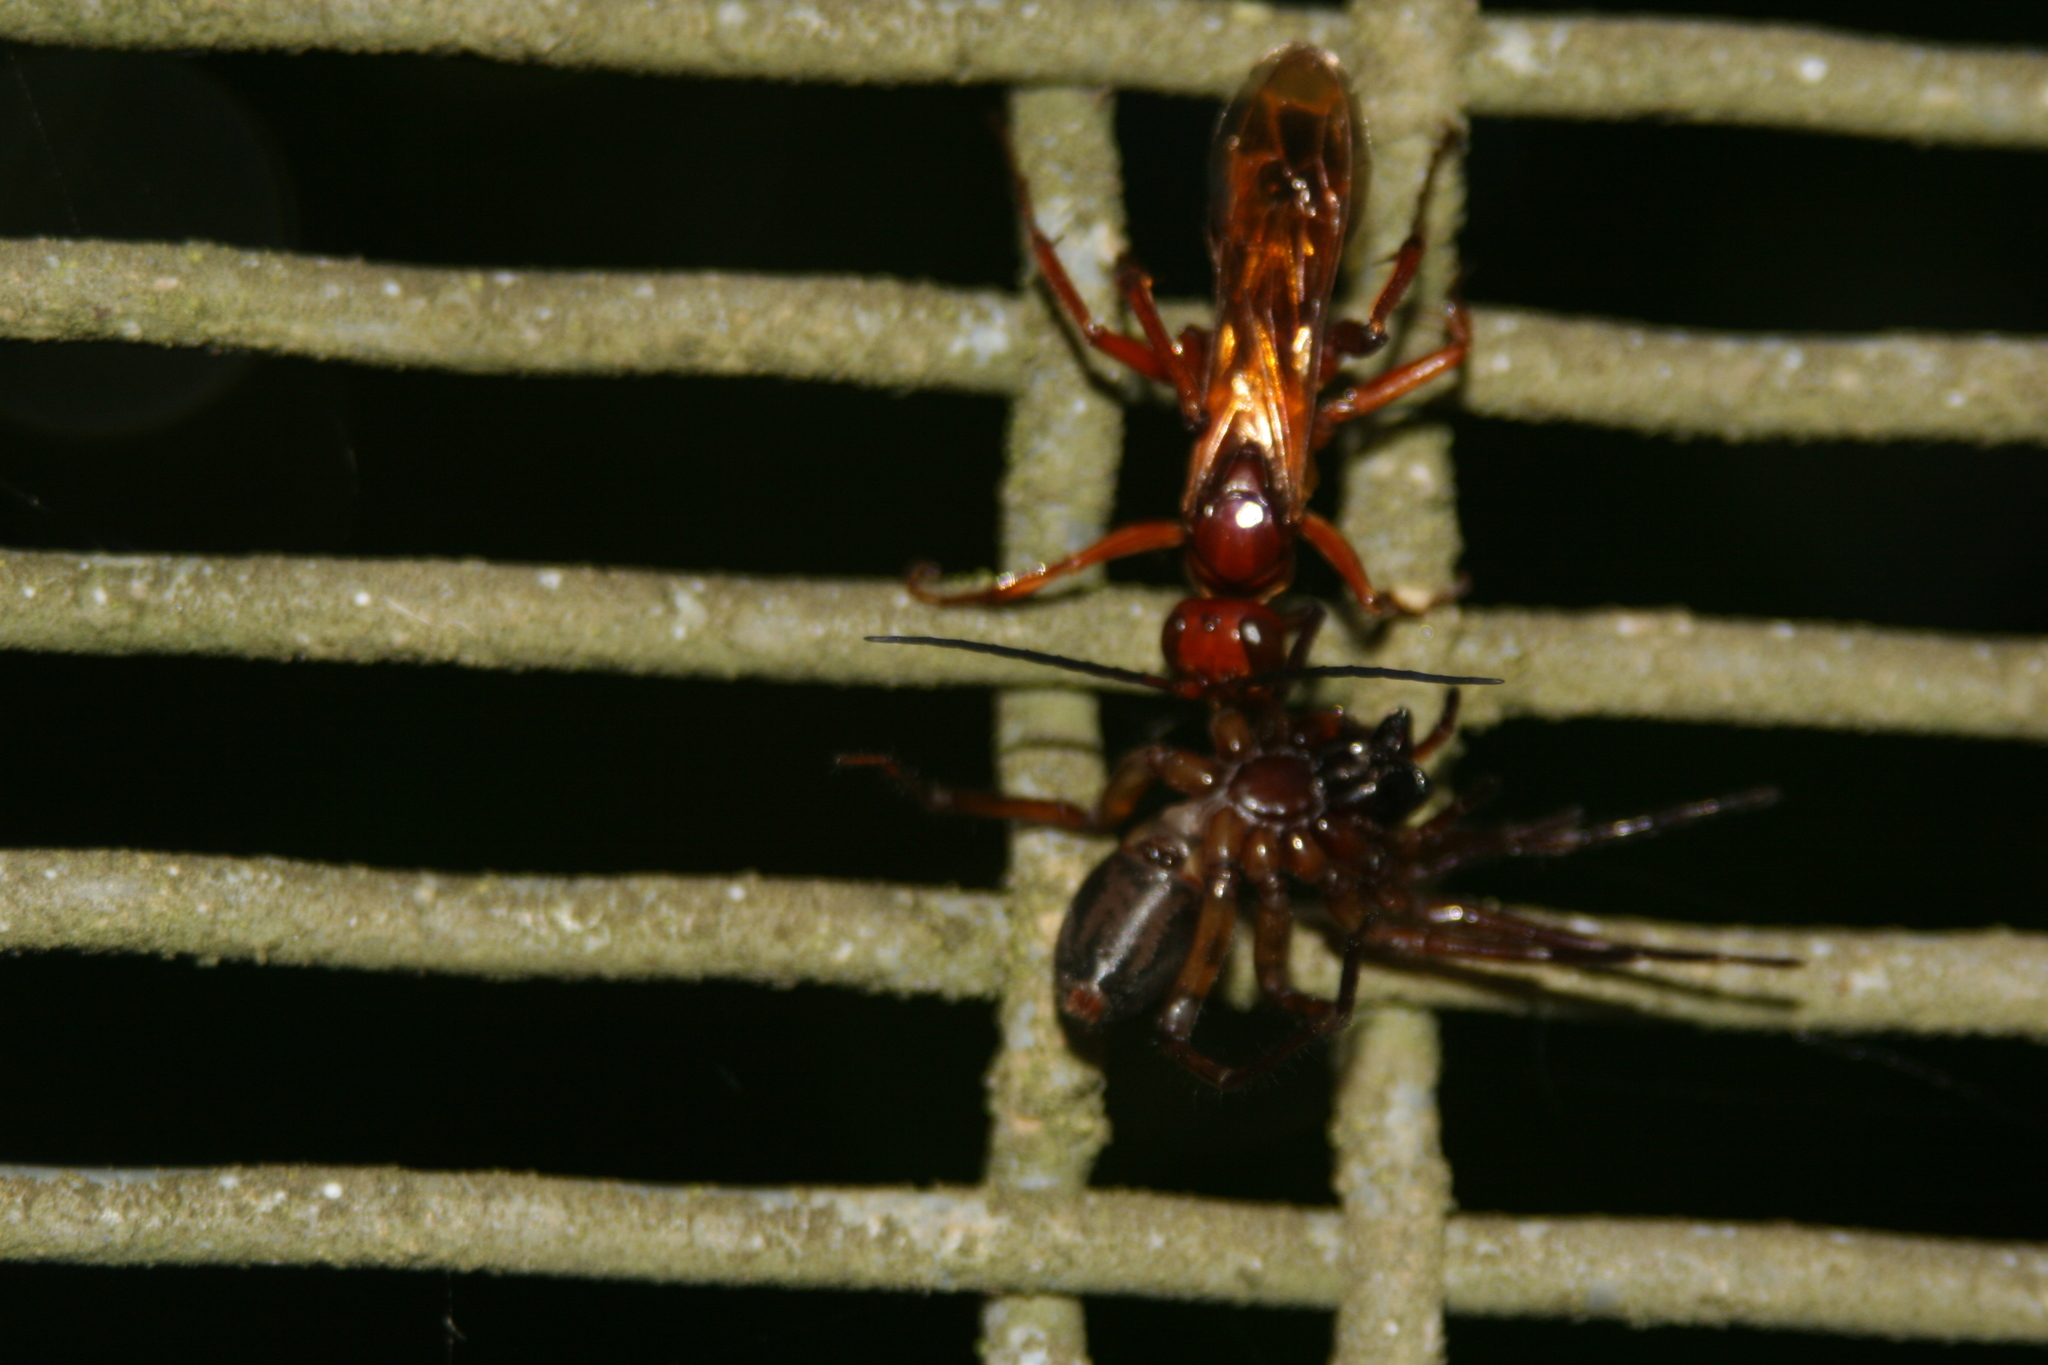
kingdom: Animalia
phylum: Arthropoda
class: Insecta
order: Hymenoptera
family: Pompilidae
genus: Sphictostethus
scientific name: Sphictostethus nitidus
